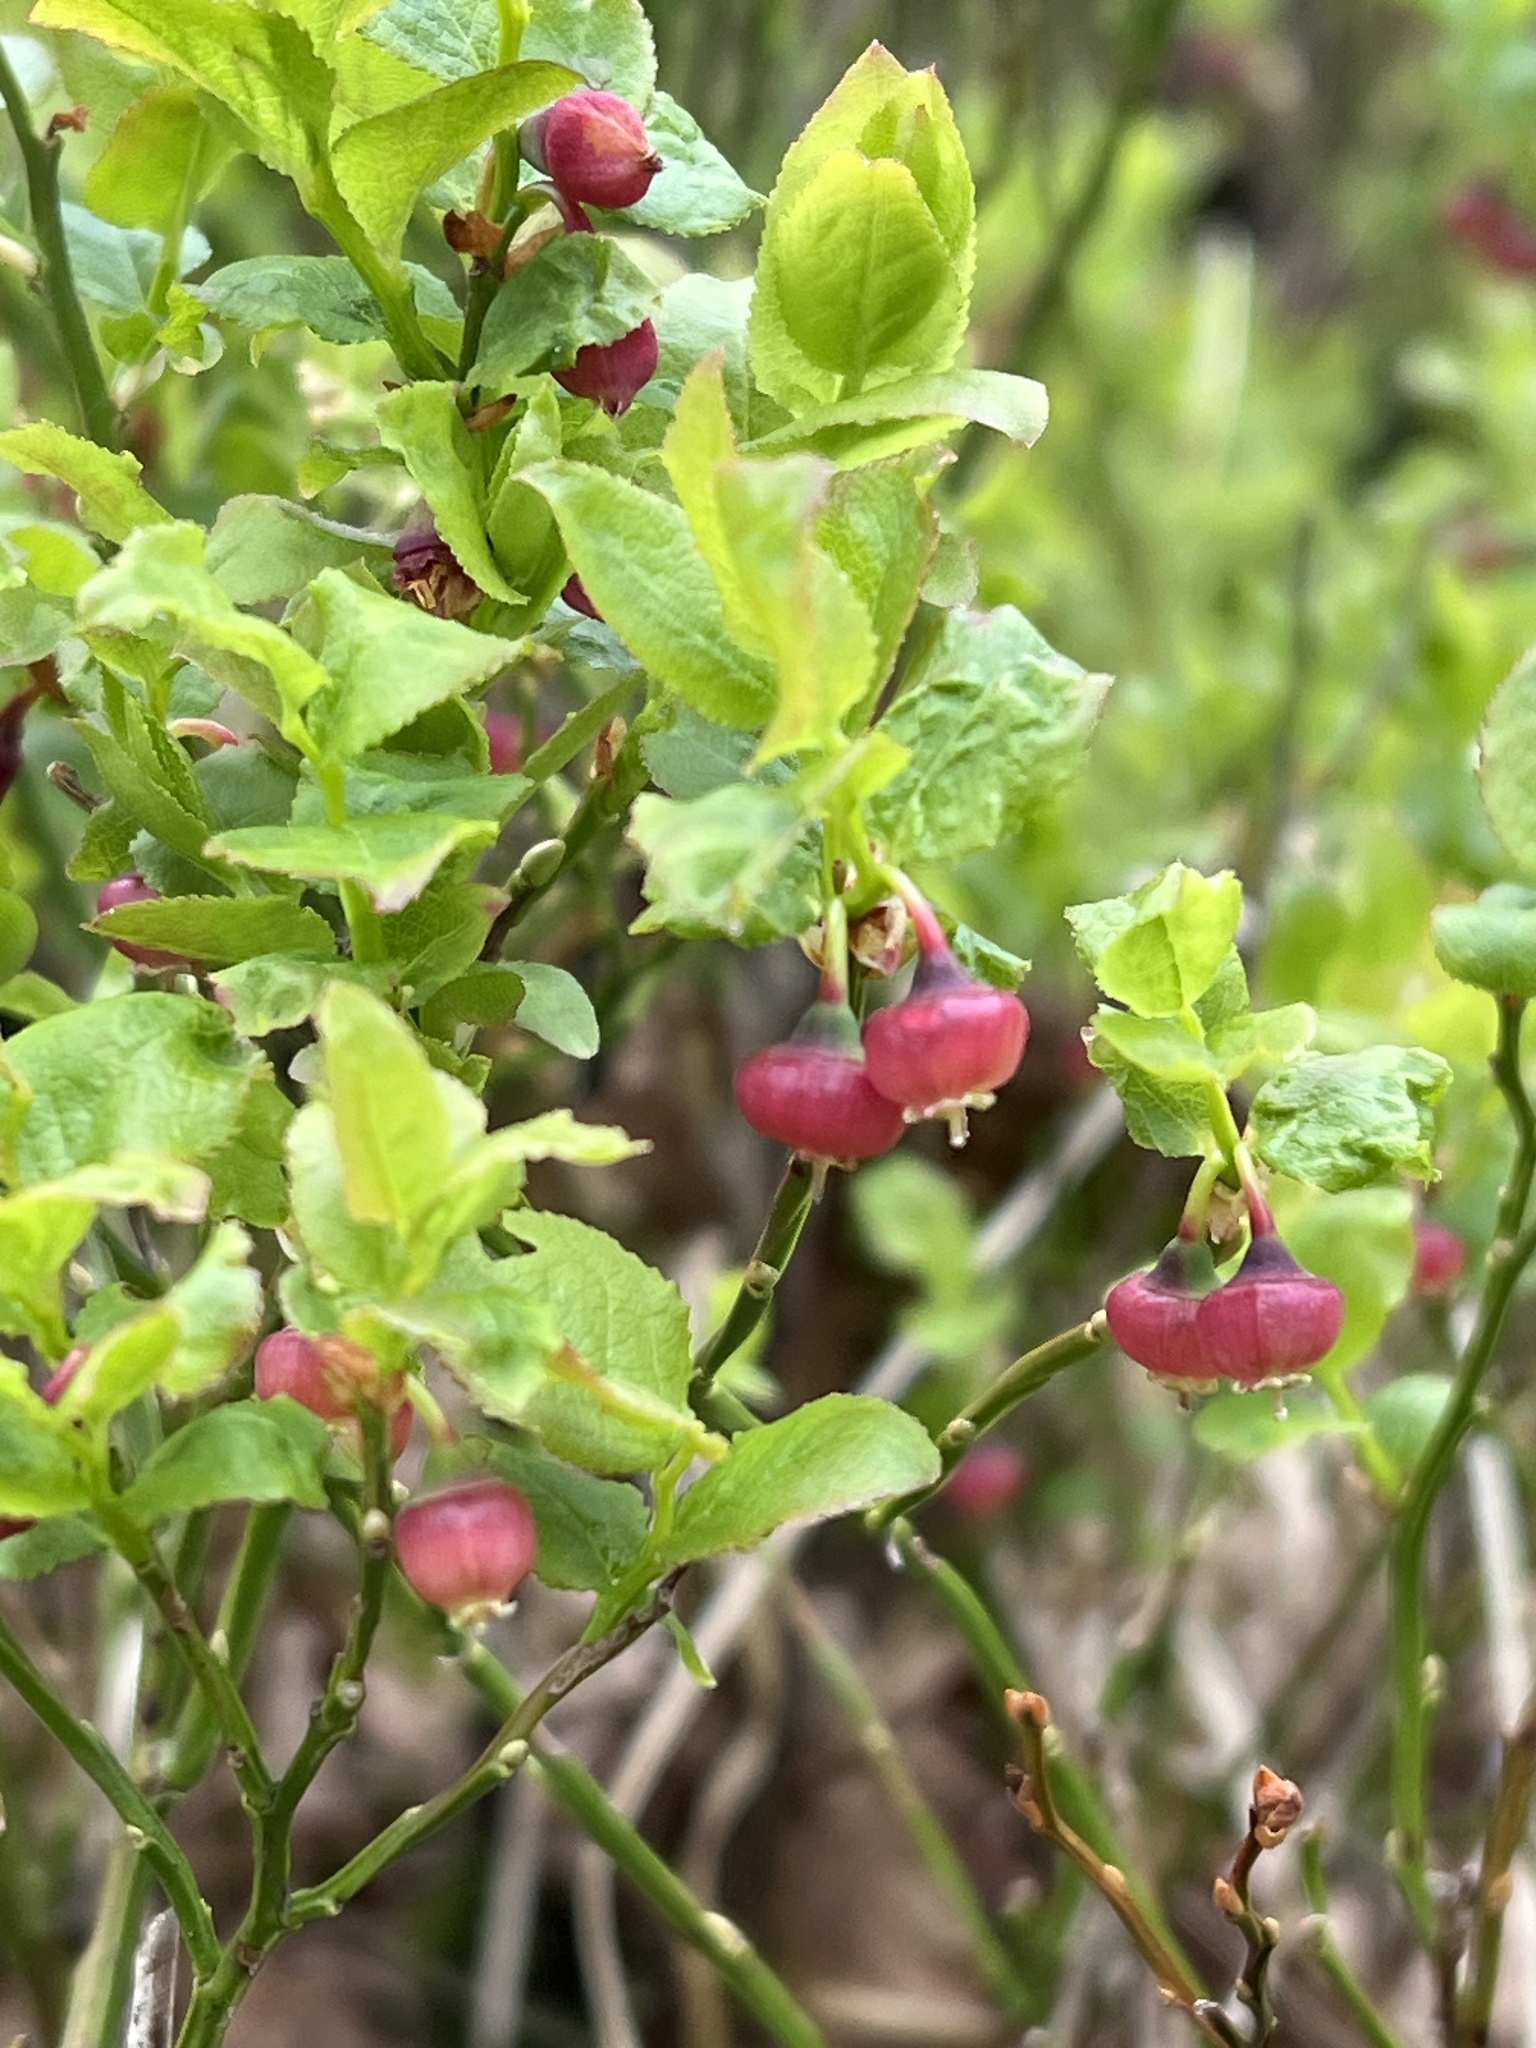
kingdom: Plantae
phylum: Tracheophyta
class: Magnoliopsida
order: Ericales
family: Ericaceae
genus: Vaccinium
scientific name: Vaccinium myrtillus
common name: Bilberry
